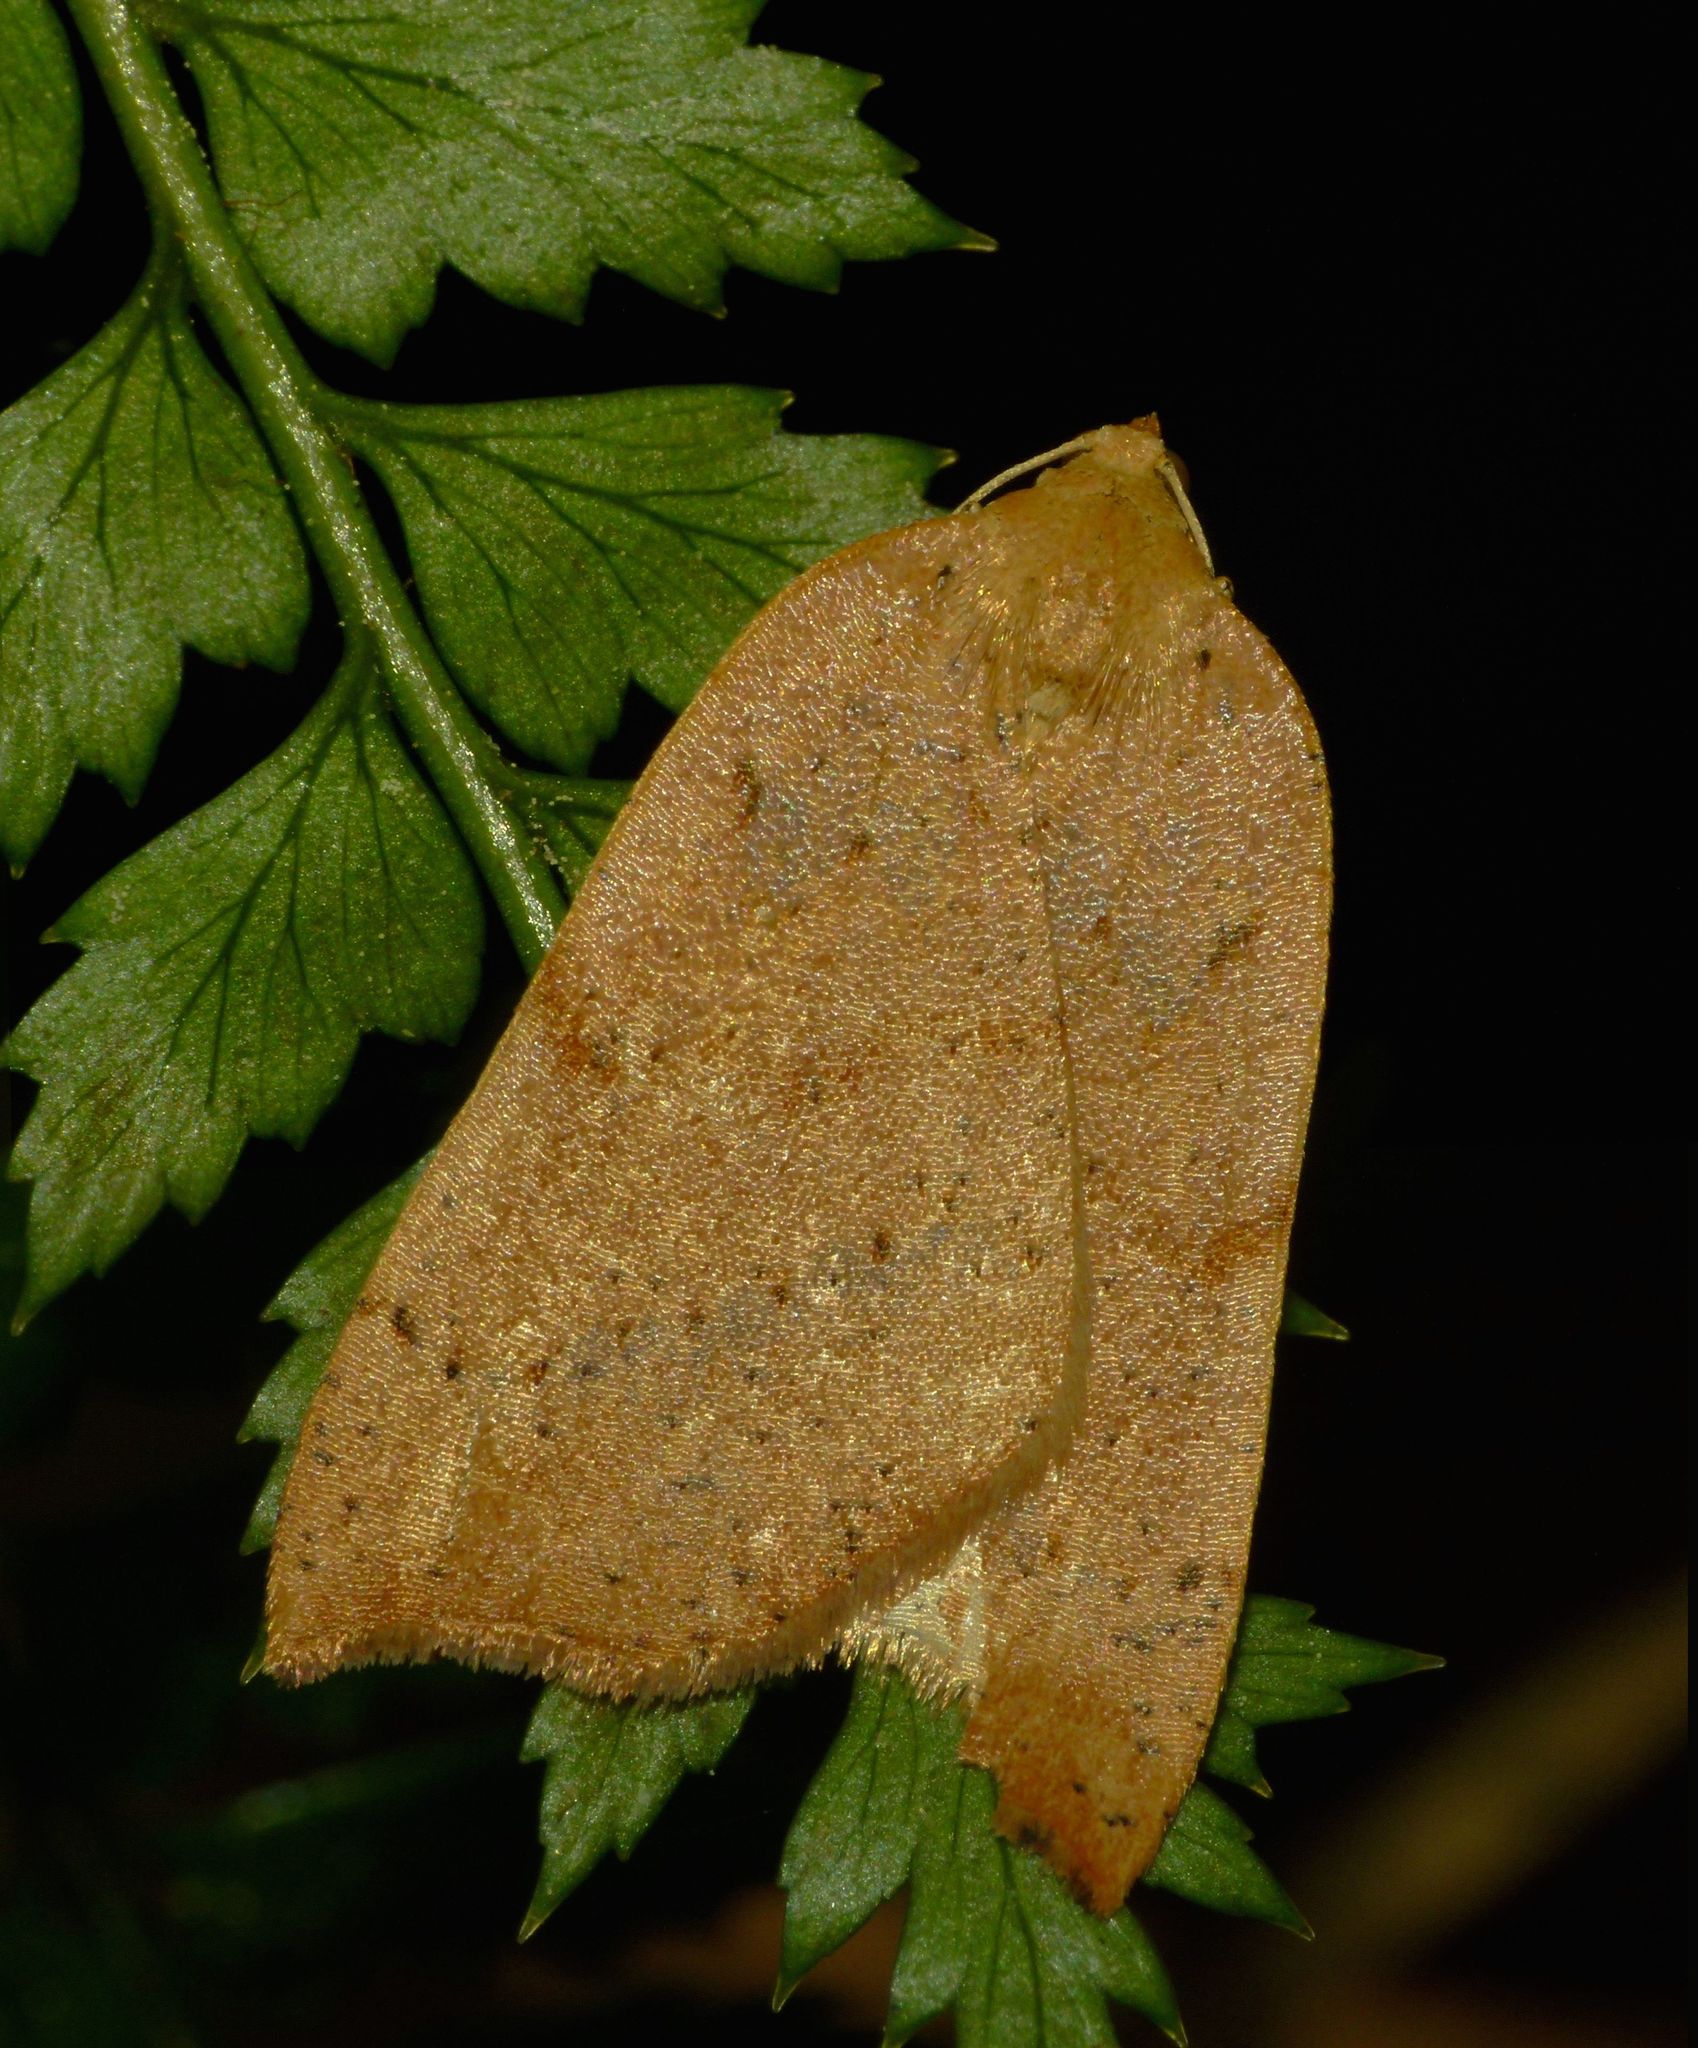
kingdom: Animalia
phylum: Arthropoda
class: Insecta
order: Lepidoptera
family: Geometridae
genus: Sestra
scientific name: Sestra humeraria
